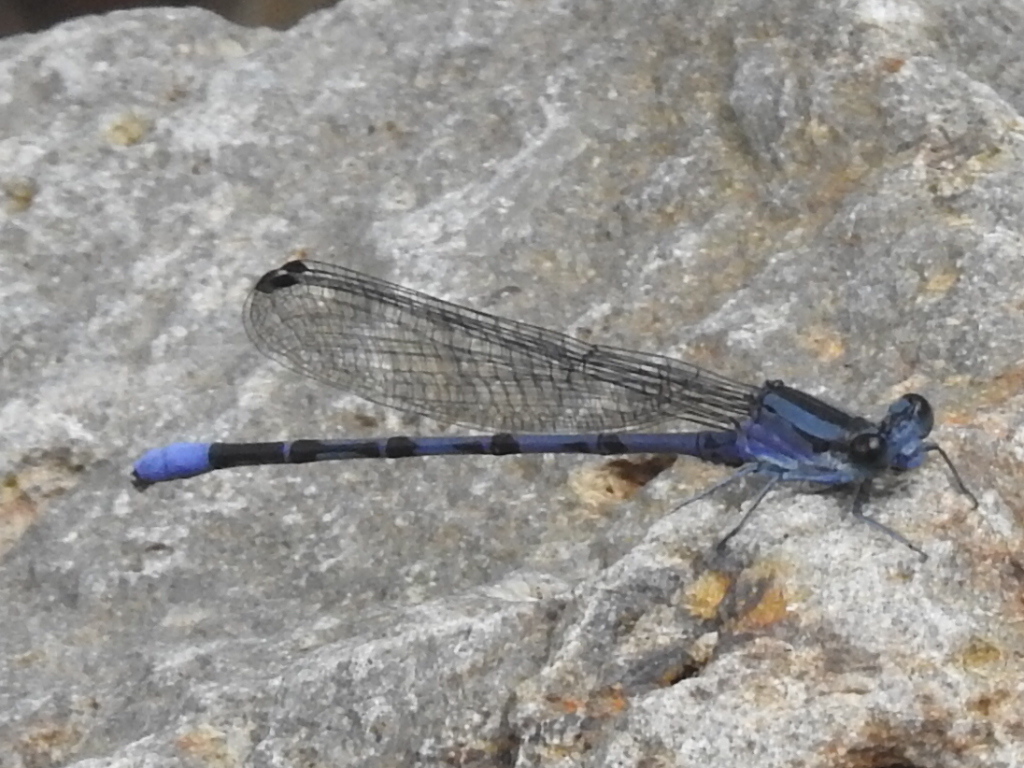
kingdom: Animalia
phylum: Arthropoda
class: Insecta
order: Odonata
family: Coenagrionidae
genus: Argia
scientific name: Argia funebris
